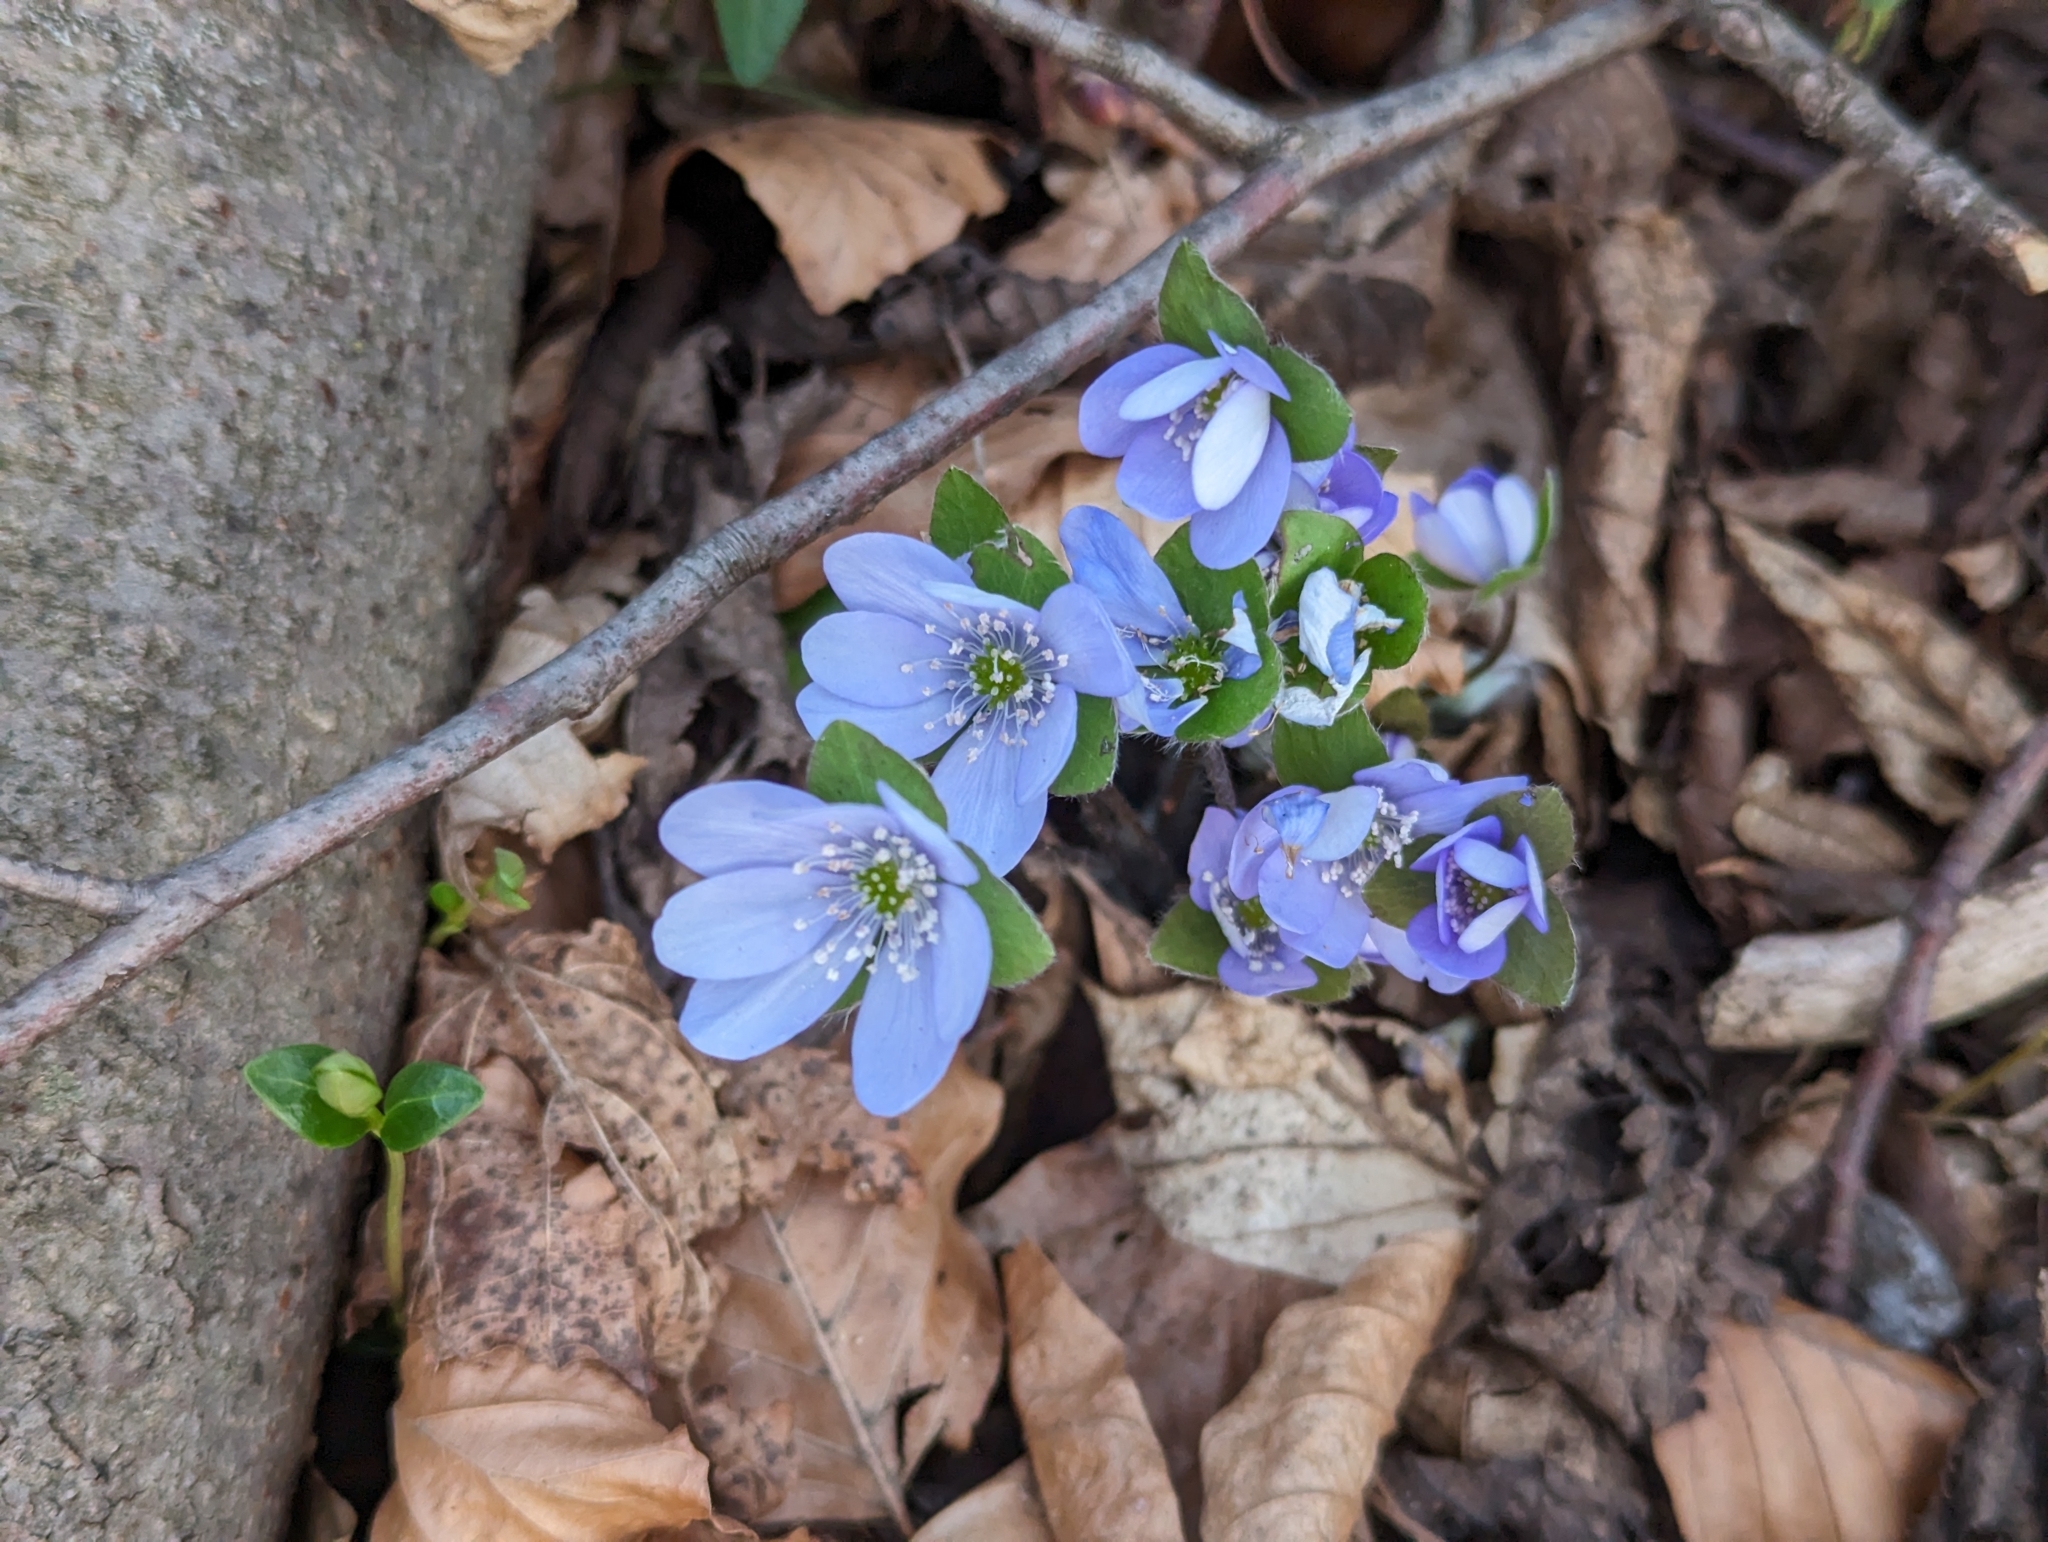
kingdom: Plantae
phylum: Tracheophyta
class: Magnoliopsida
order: Ranunculales
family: Ranunculaceae
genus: Hepatica
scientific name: Hepatica nobilis
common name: Liverleaf
